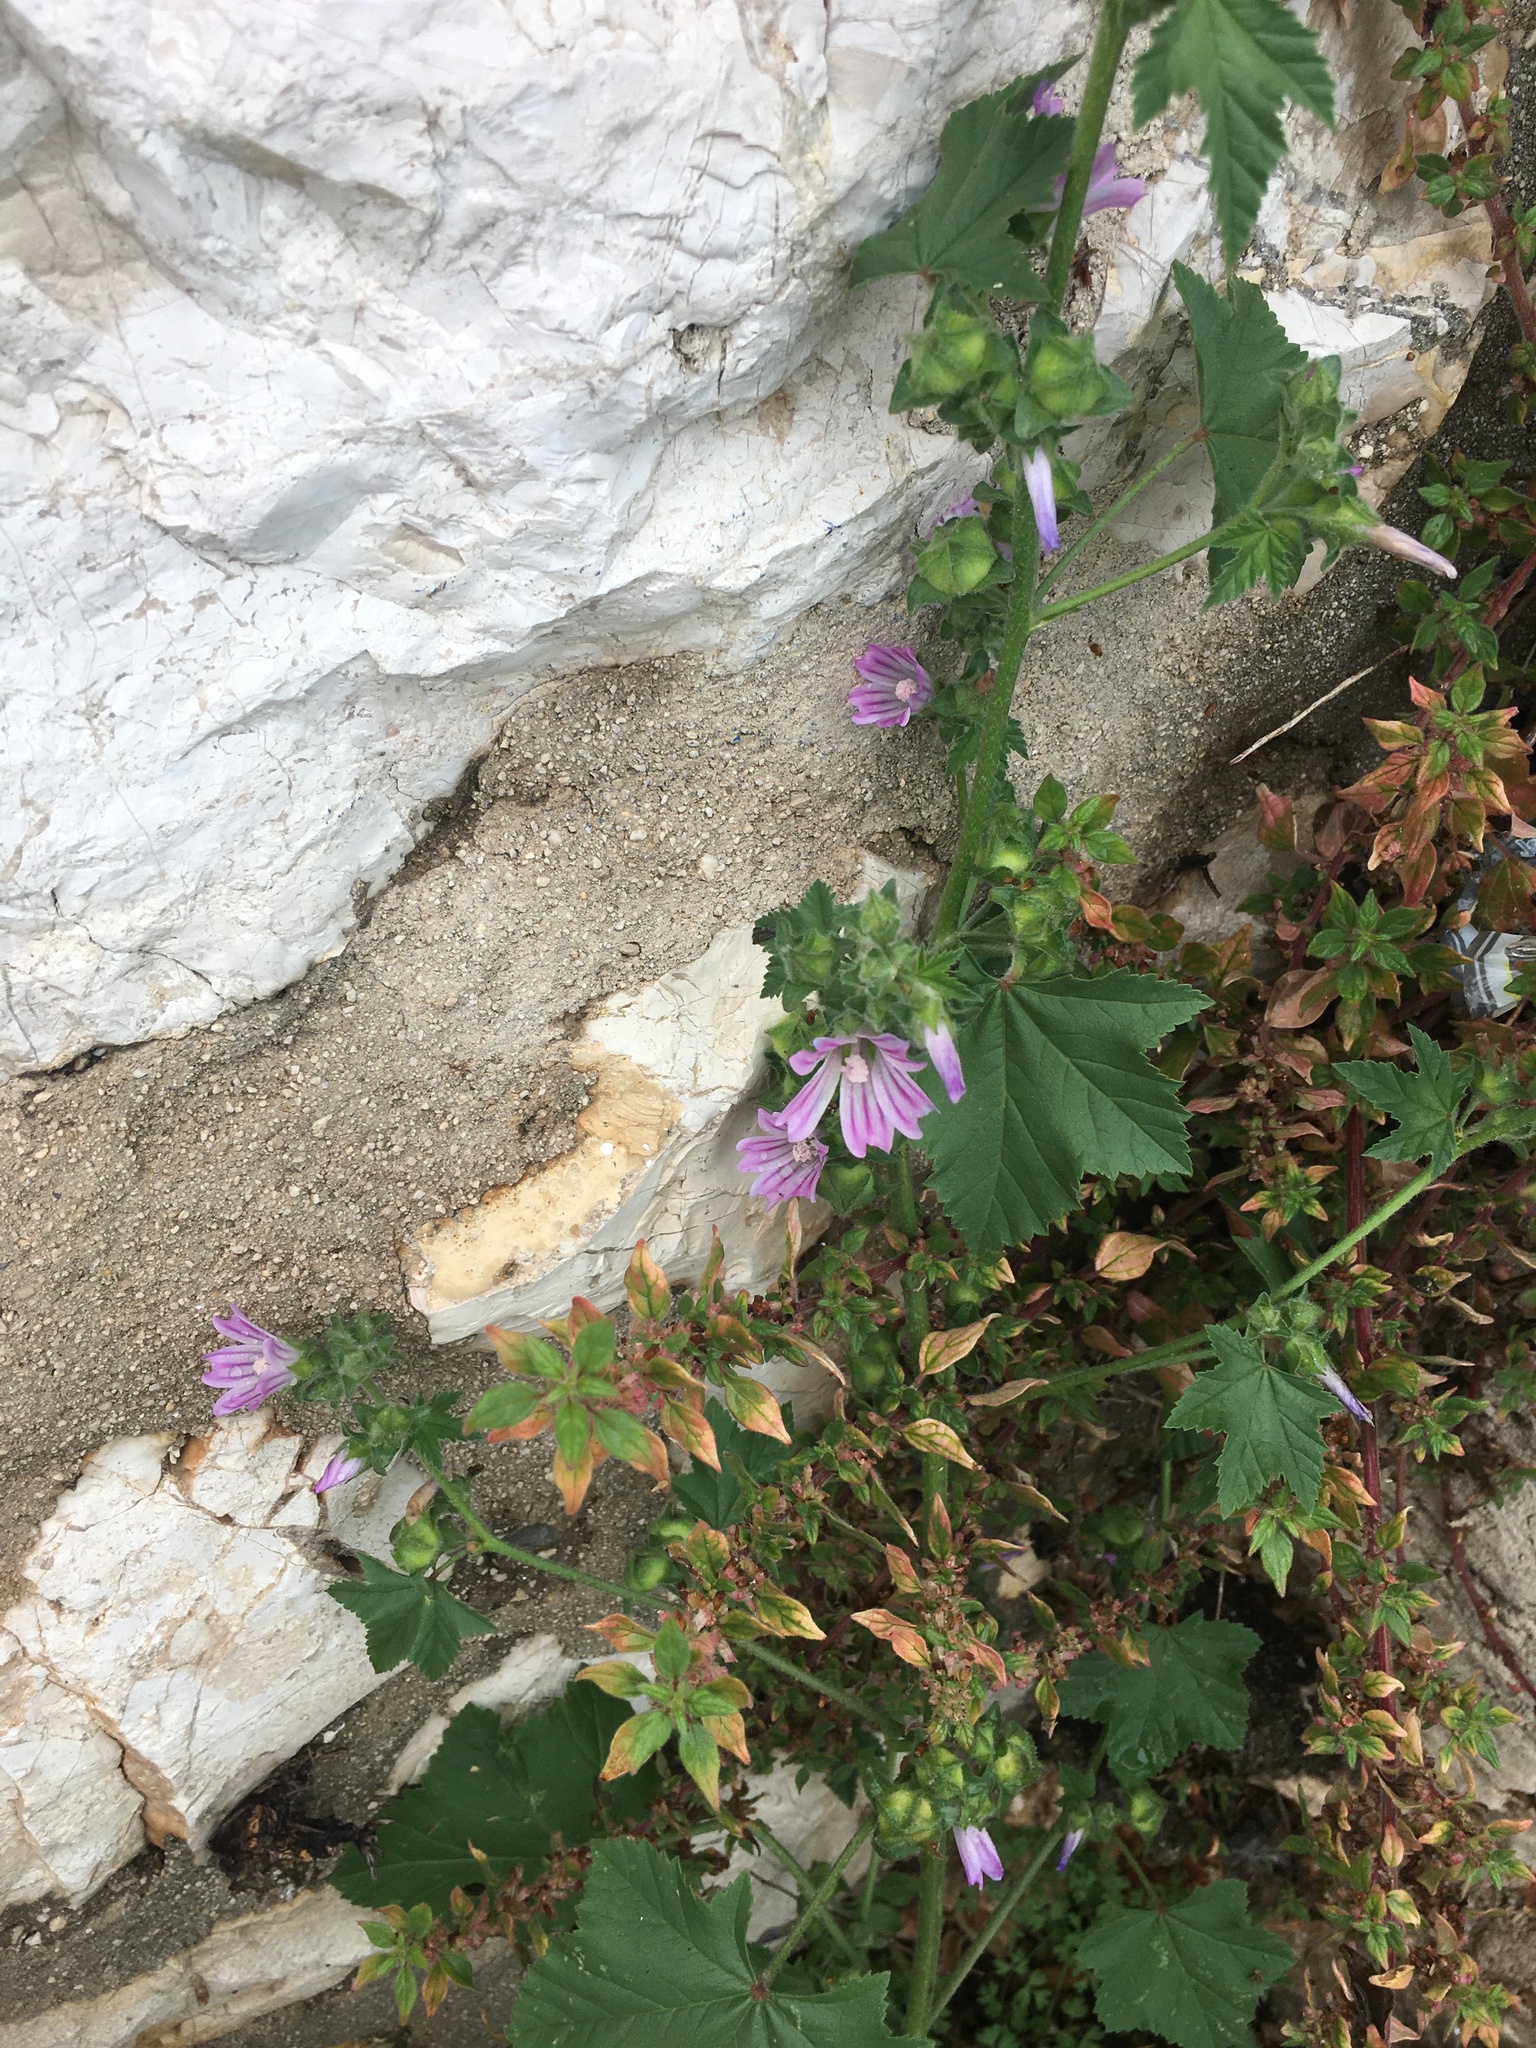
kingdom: Plantae
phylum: Tracheophyta
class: Magnoliopsida
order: Malvales
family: Malvaceae
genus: Malva
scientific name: Malva sylvestris
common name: Common mallow
